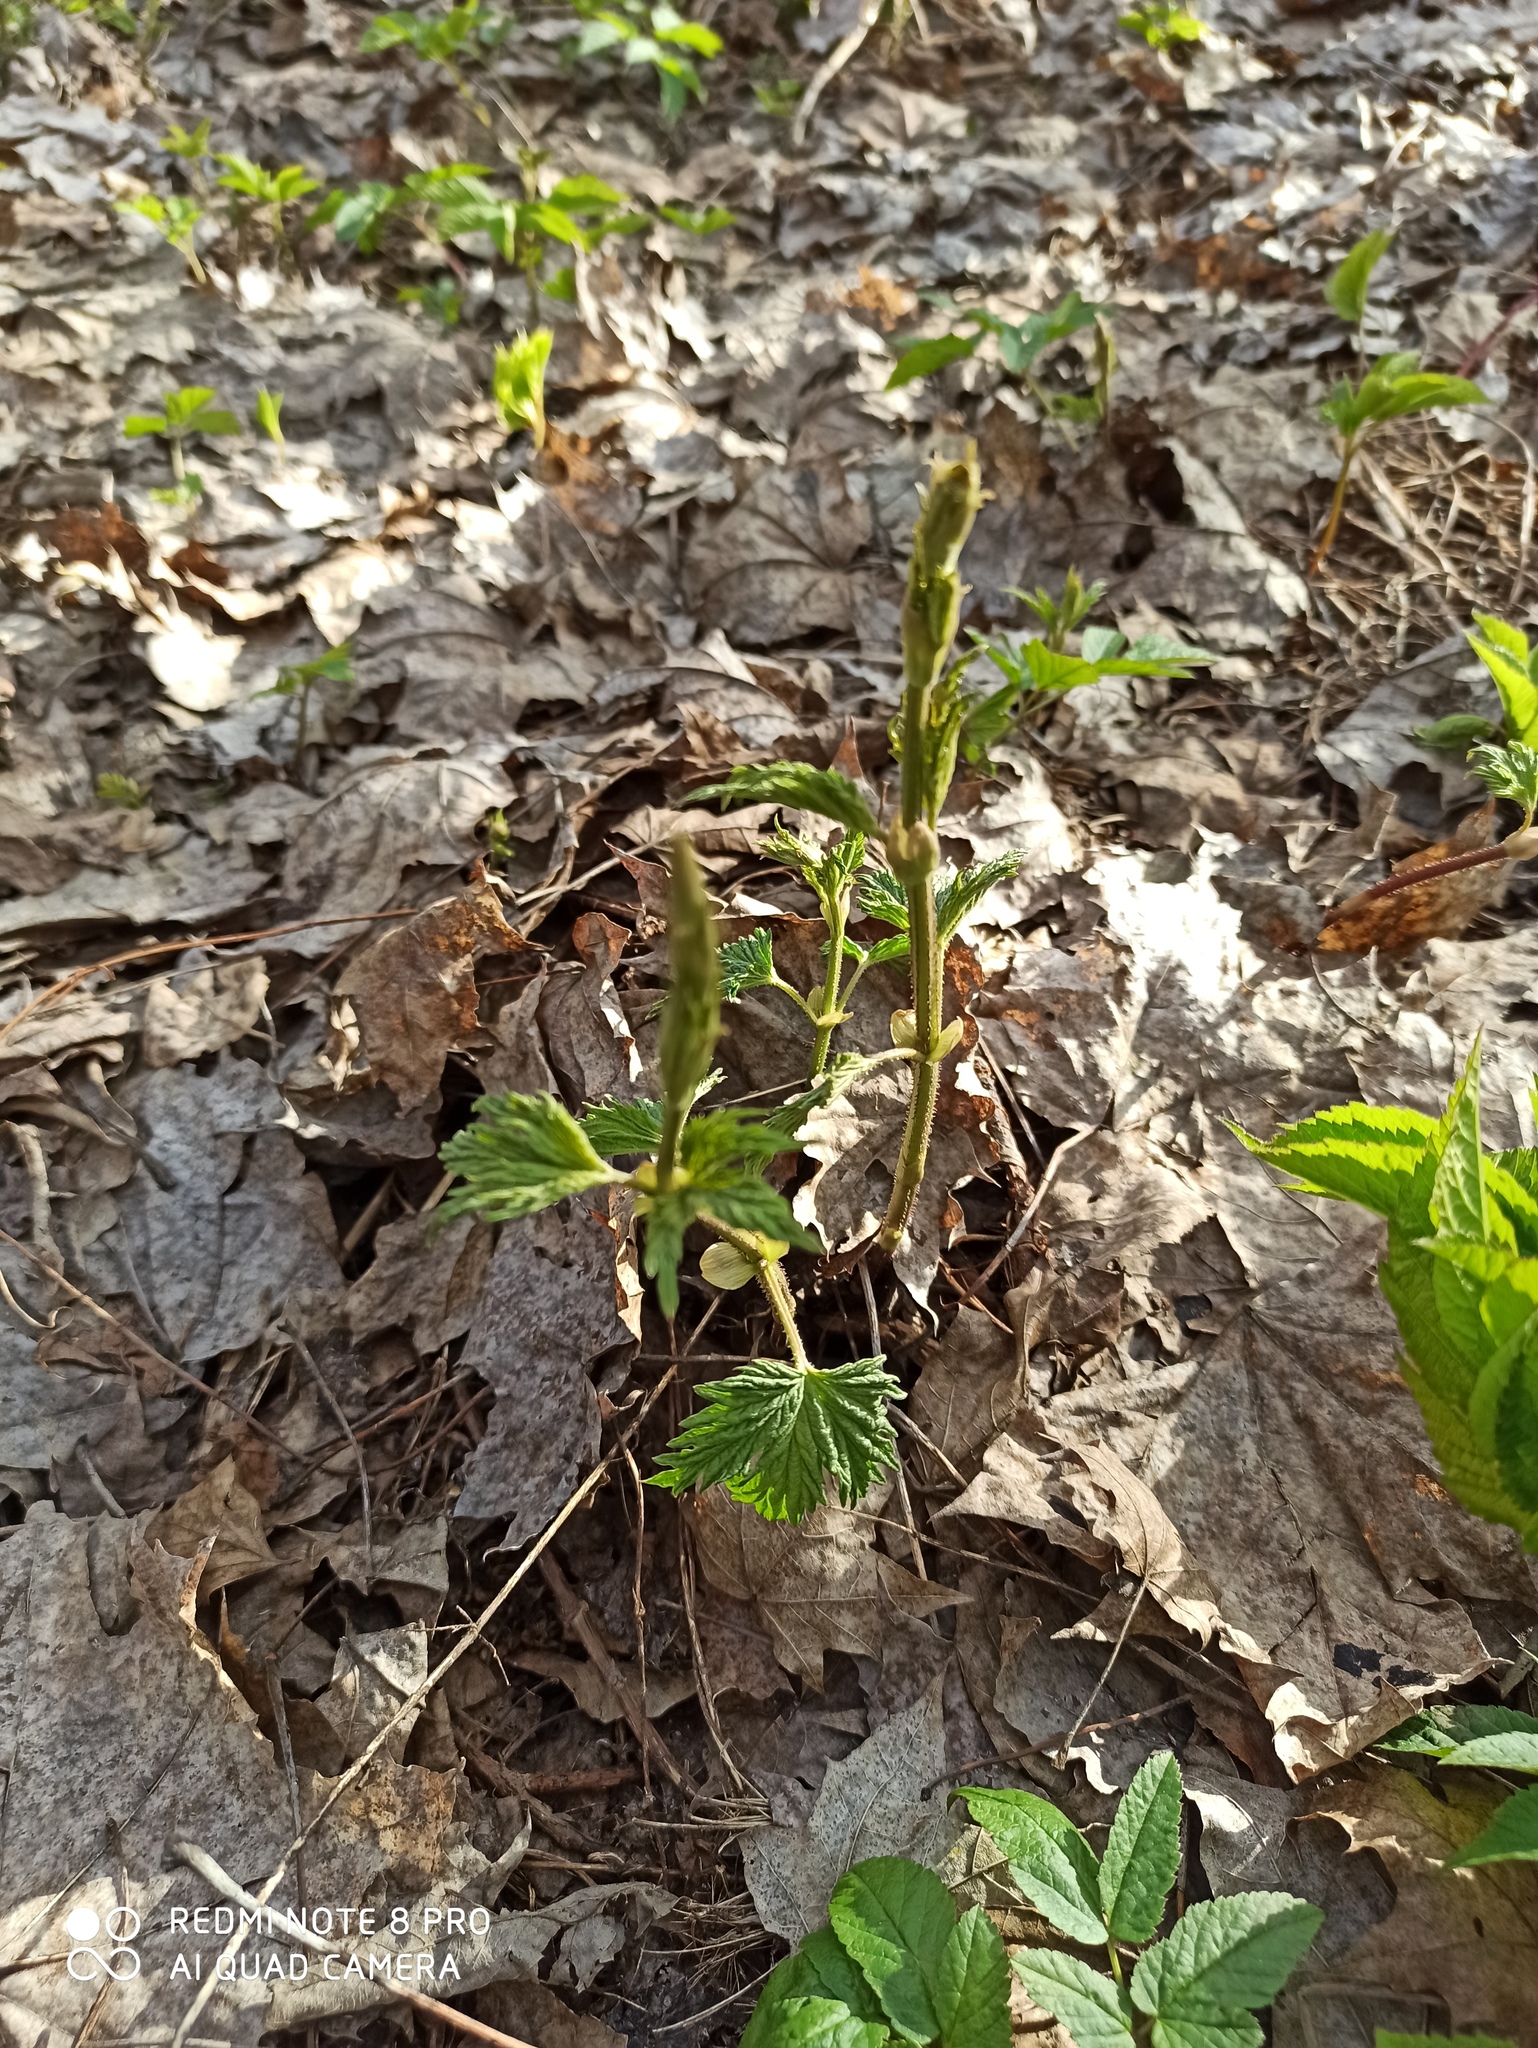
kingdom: Plantae
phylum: Tracheophyta
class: Magnoliopsida
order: Rosales
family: Cannabaceae
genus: Humulus
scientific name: Humulus lupulus
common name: Hop
